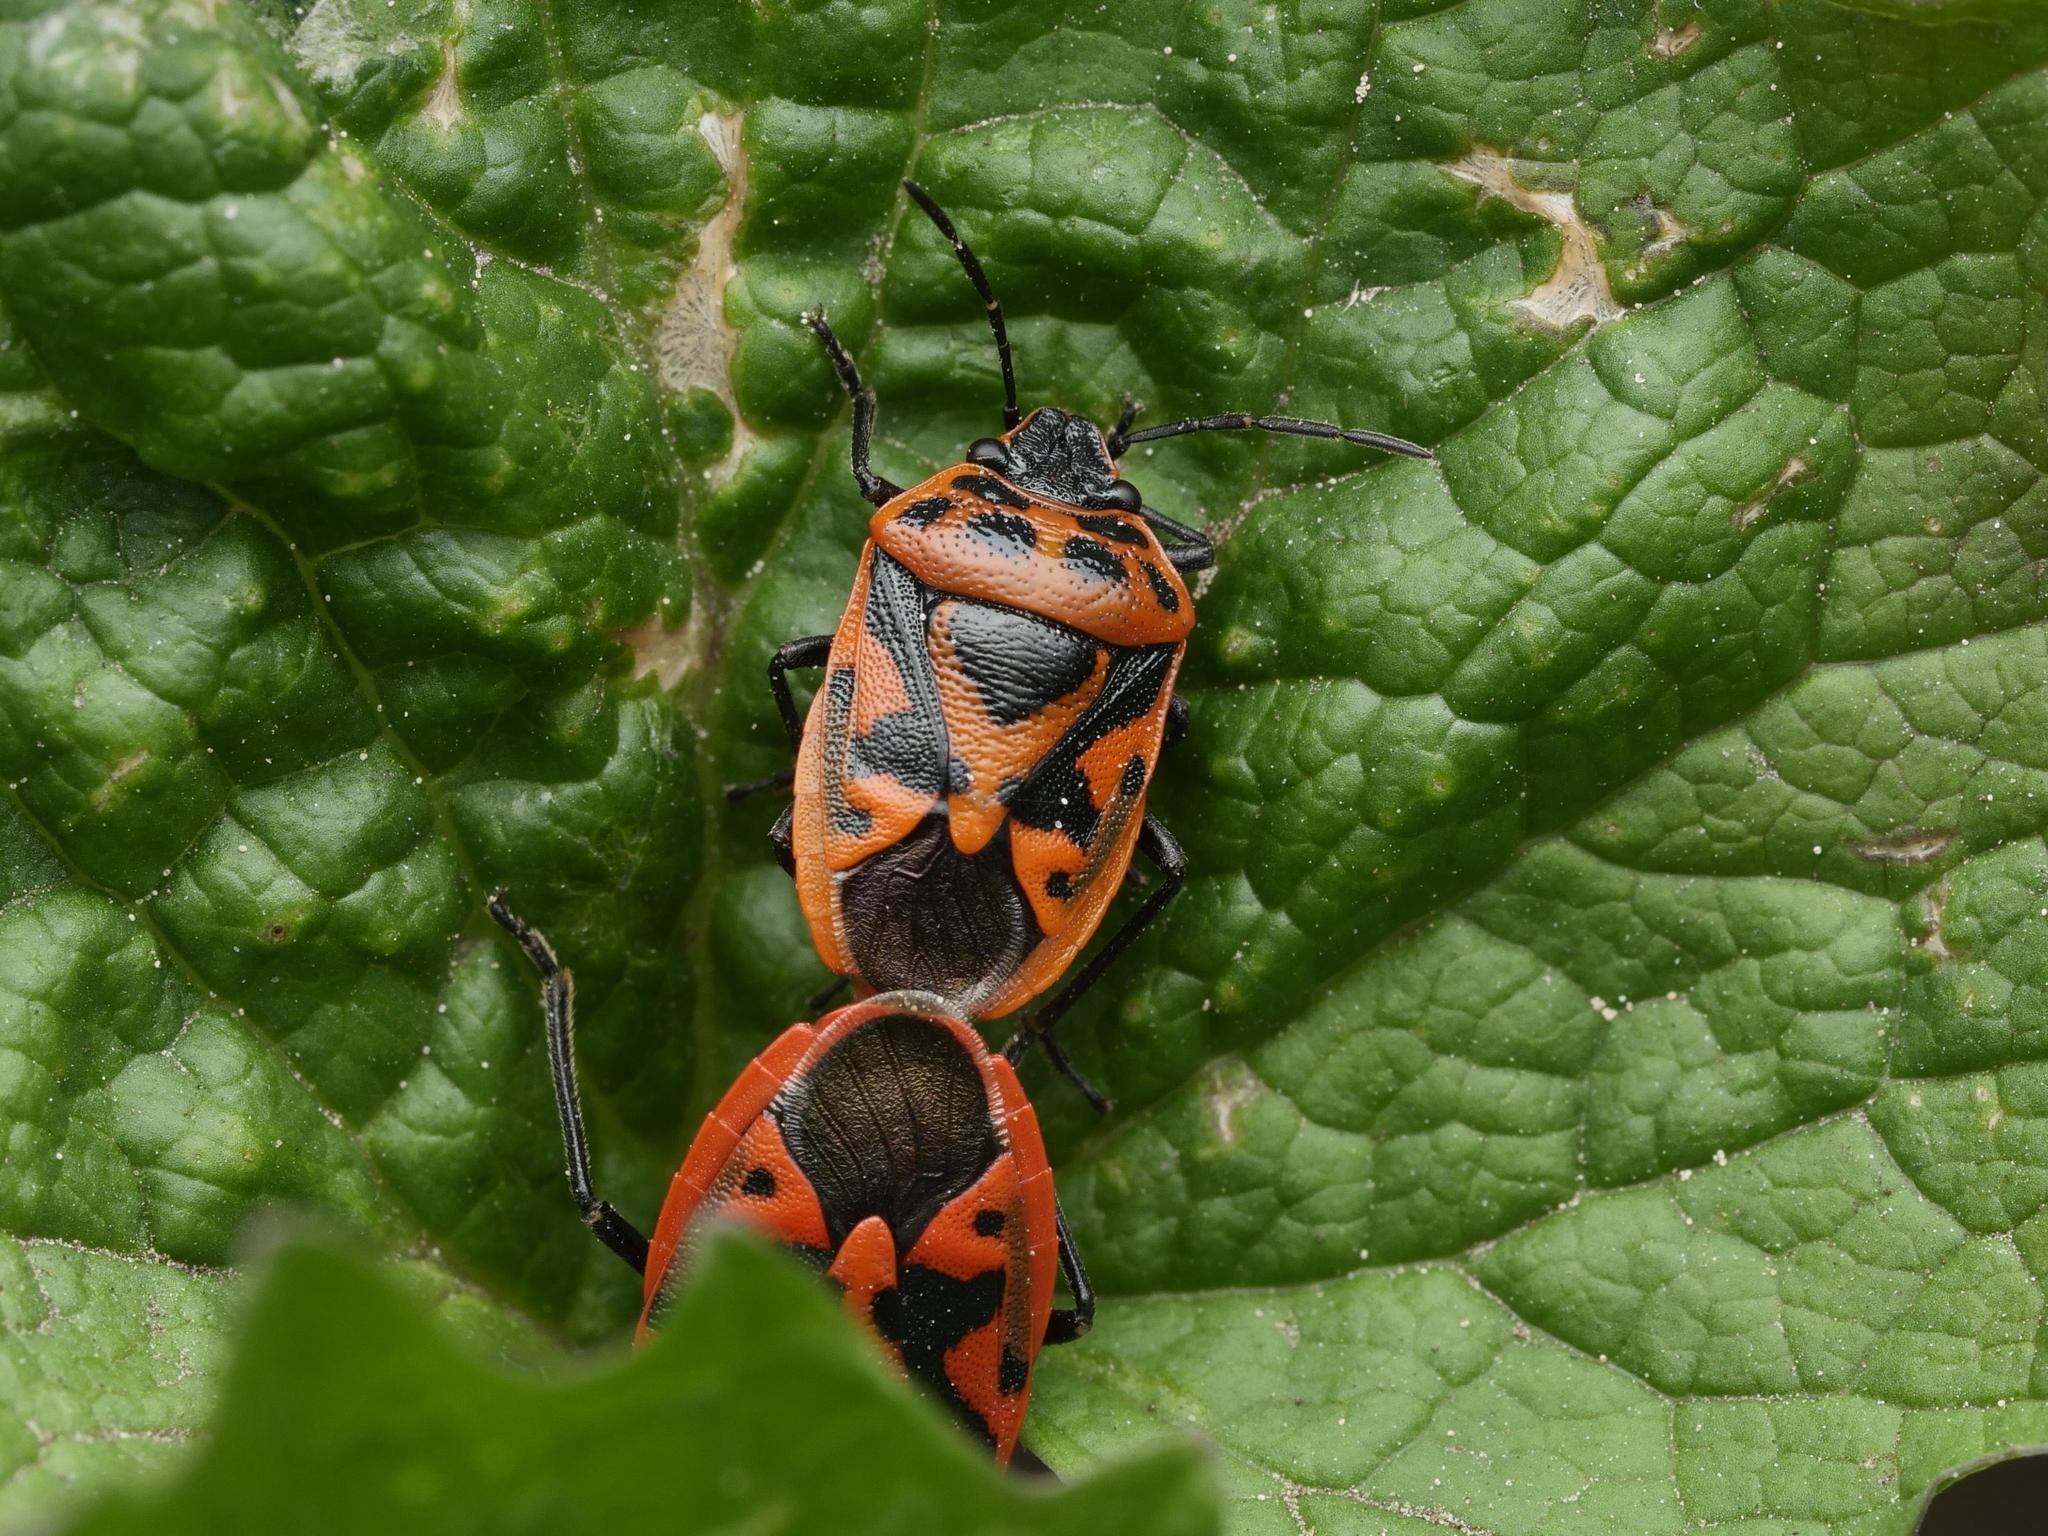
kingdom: Animalia
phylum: Arthropoda
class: Insecta
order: Hemiptera
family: Pentatomidae
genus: Eurydema
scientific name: Eurydema ornata
